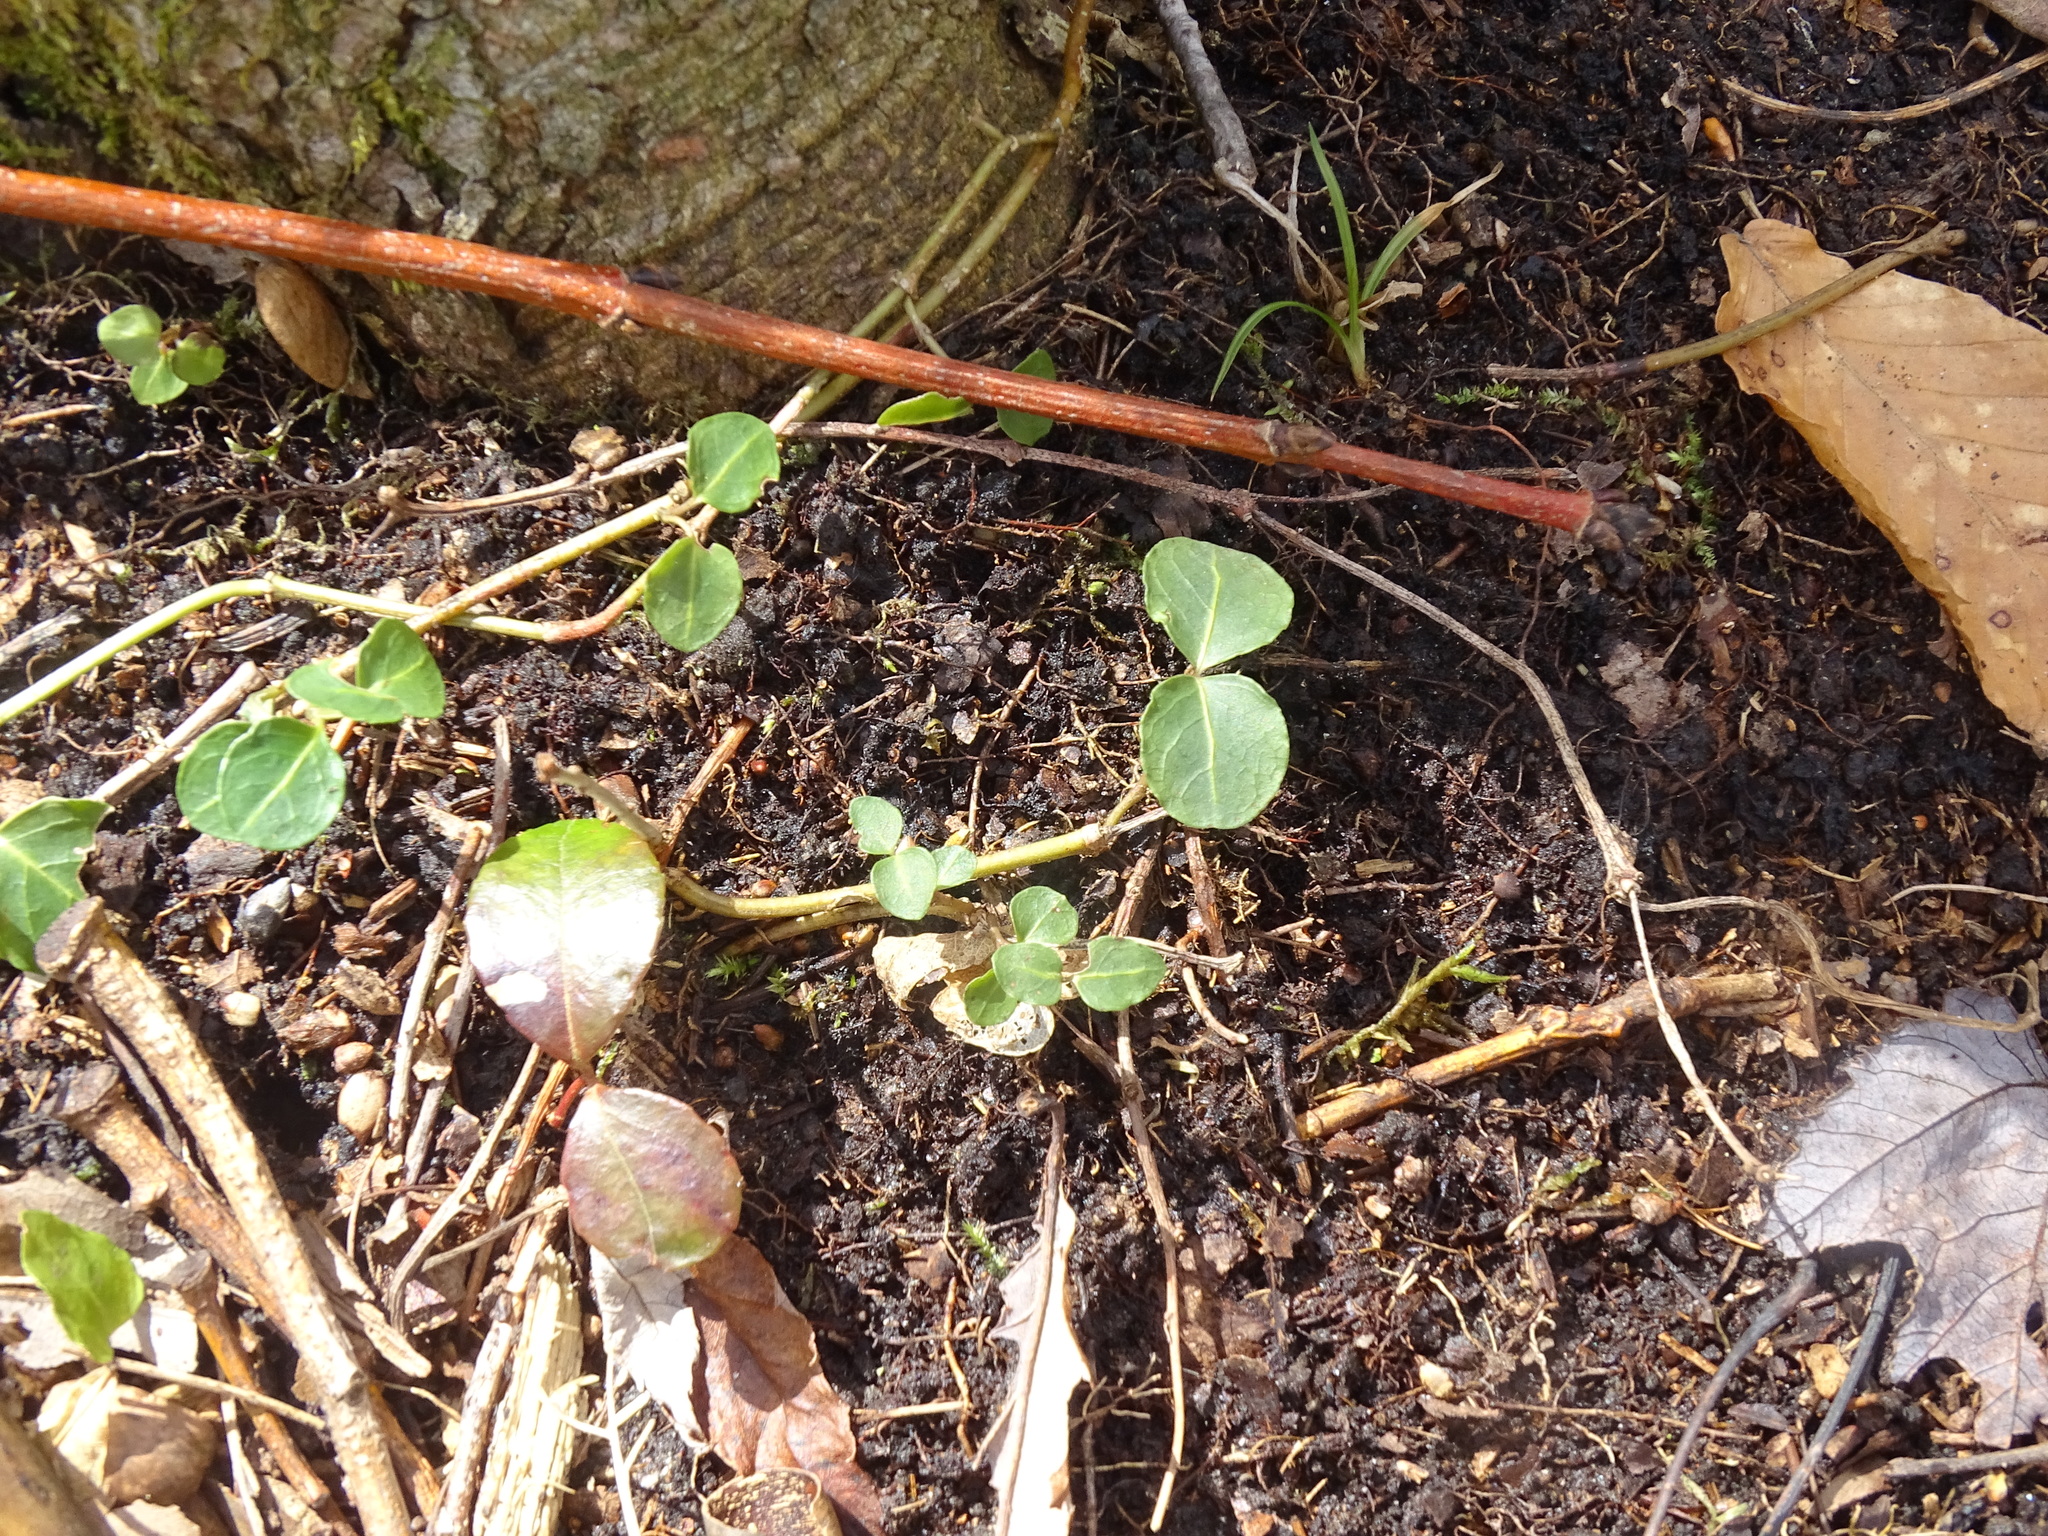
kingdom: Plantae
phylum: Tracheophyta
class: Magnoliopsida
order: Gentianales
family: Rubiaceae
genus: Mitchella
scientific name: Mitchella repens
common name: Partridge-berry
